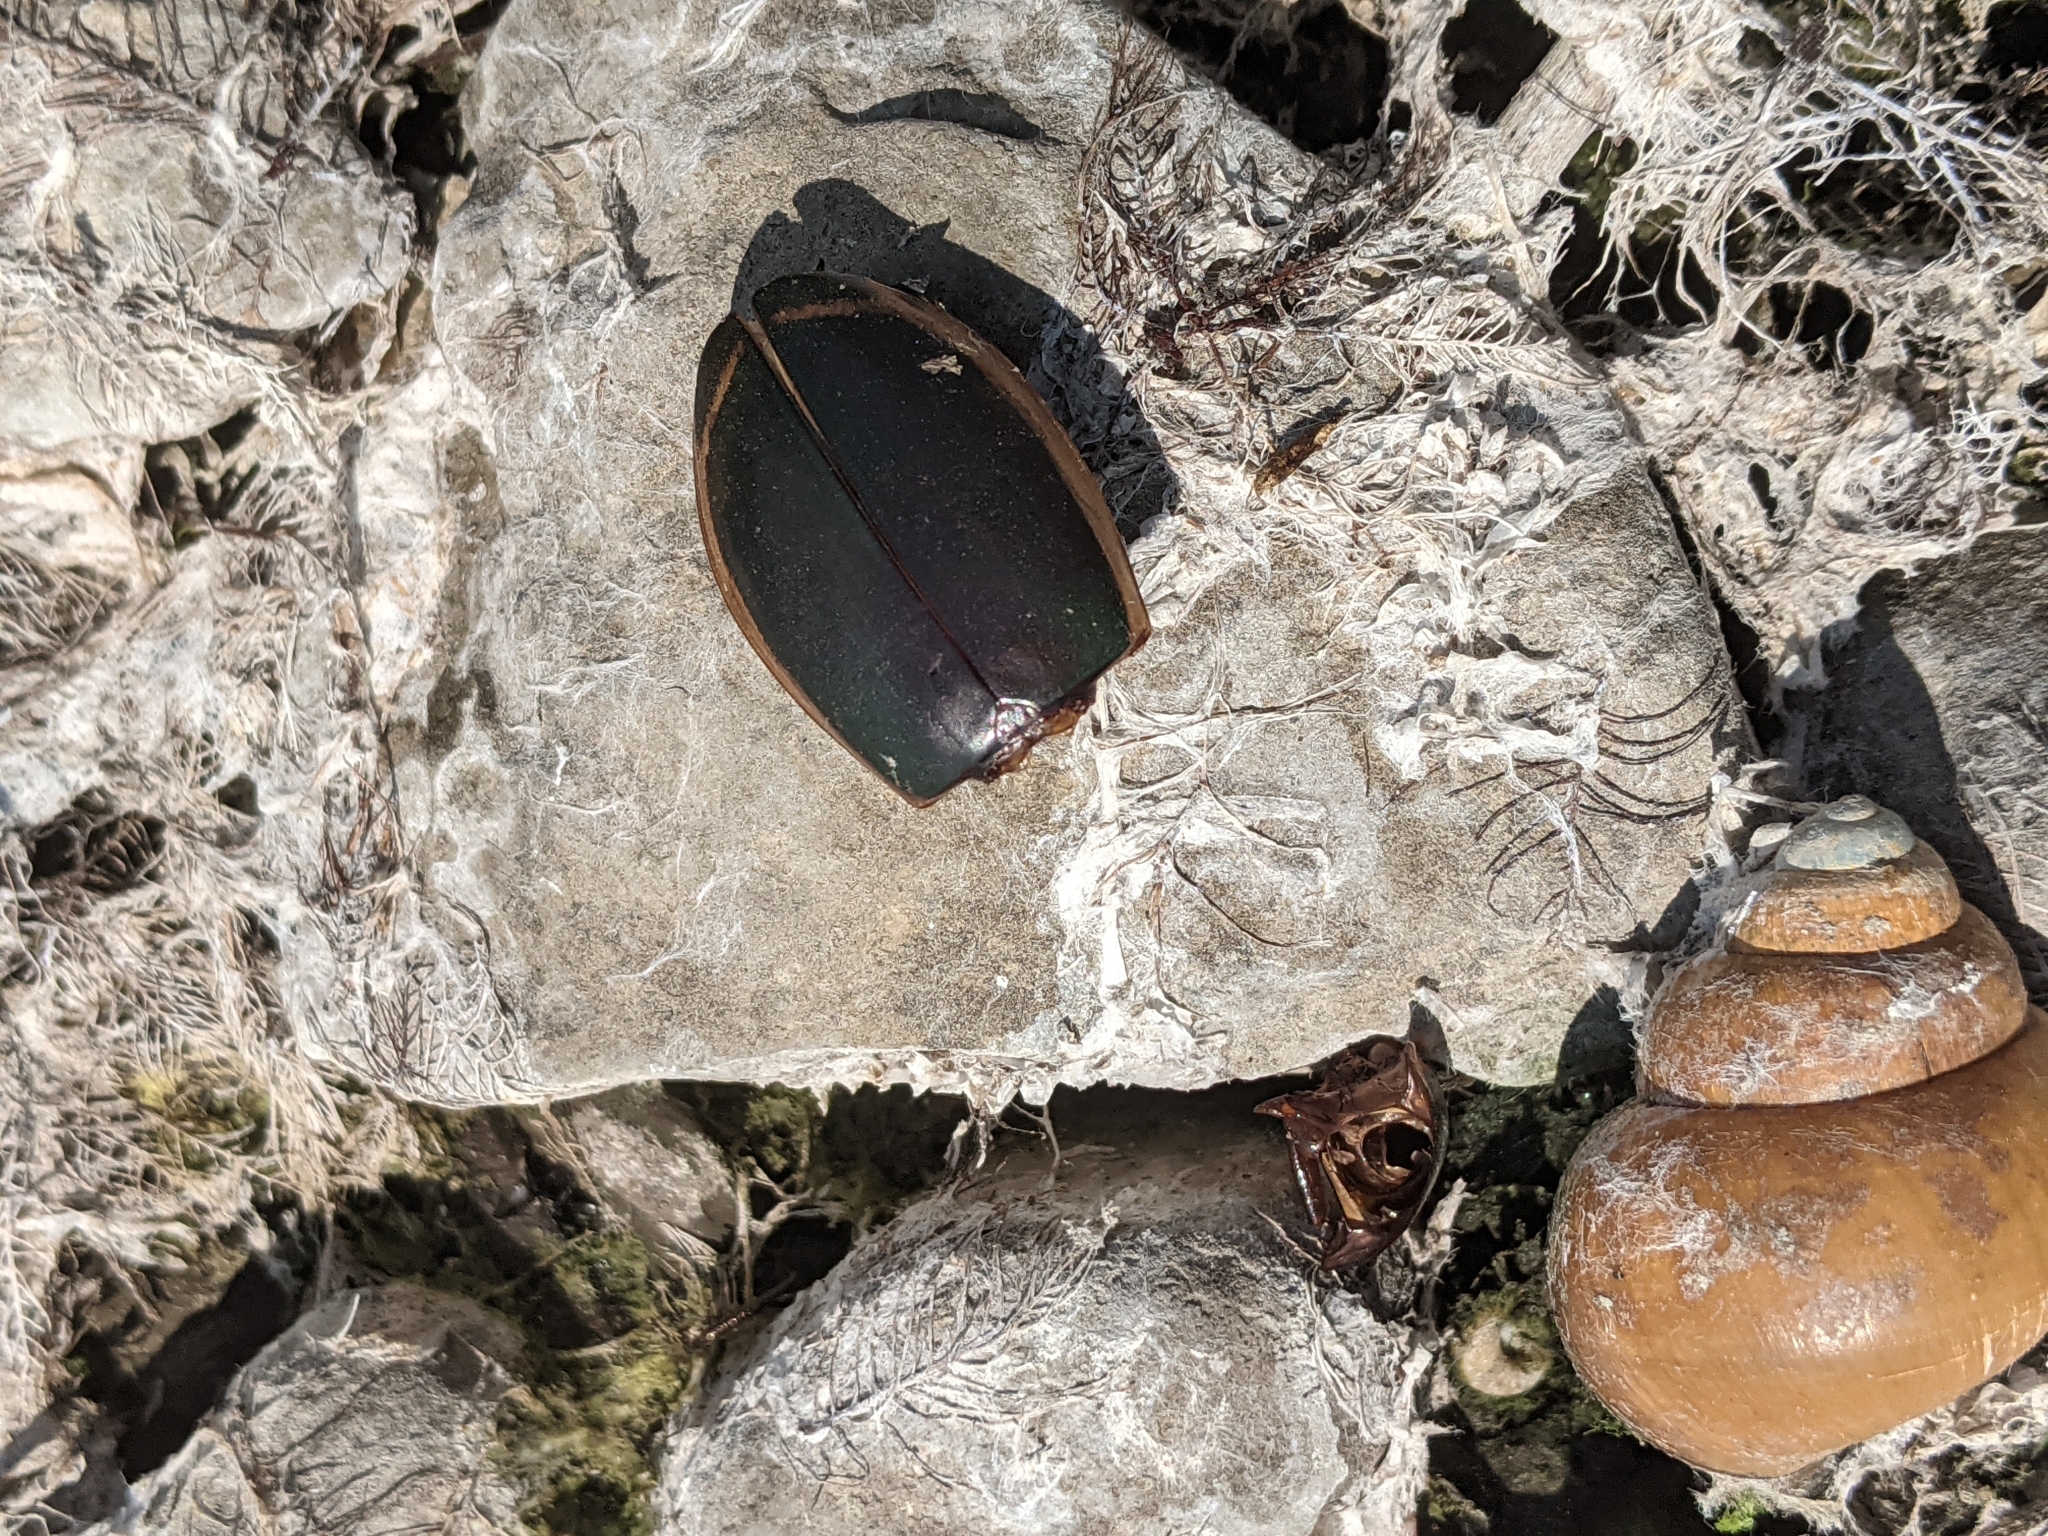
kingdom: Animalia
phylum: Arthropoda
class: Insecta
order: Coleoptera
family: Dytiscidae
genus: Dytiscus
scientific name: Dytiscus verticalis
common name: Vertical diving beetle
